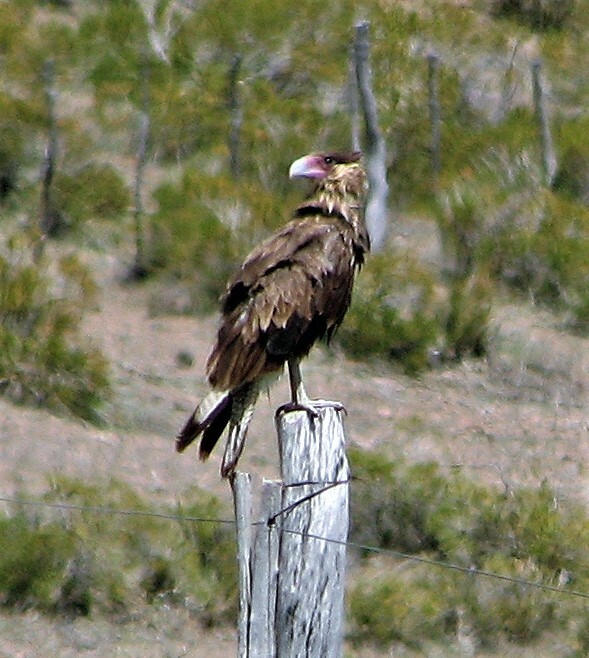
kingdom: Animalia
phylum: Chordata
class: Aves
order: Falconiformes
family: Falconidae
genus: Caracara
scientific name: Caracara plancus
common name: Southern caracara
